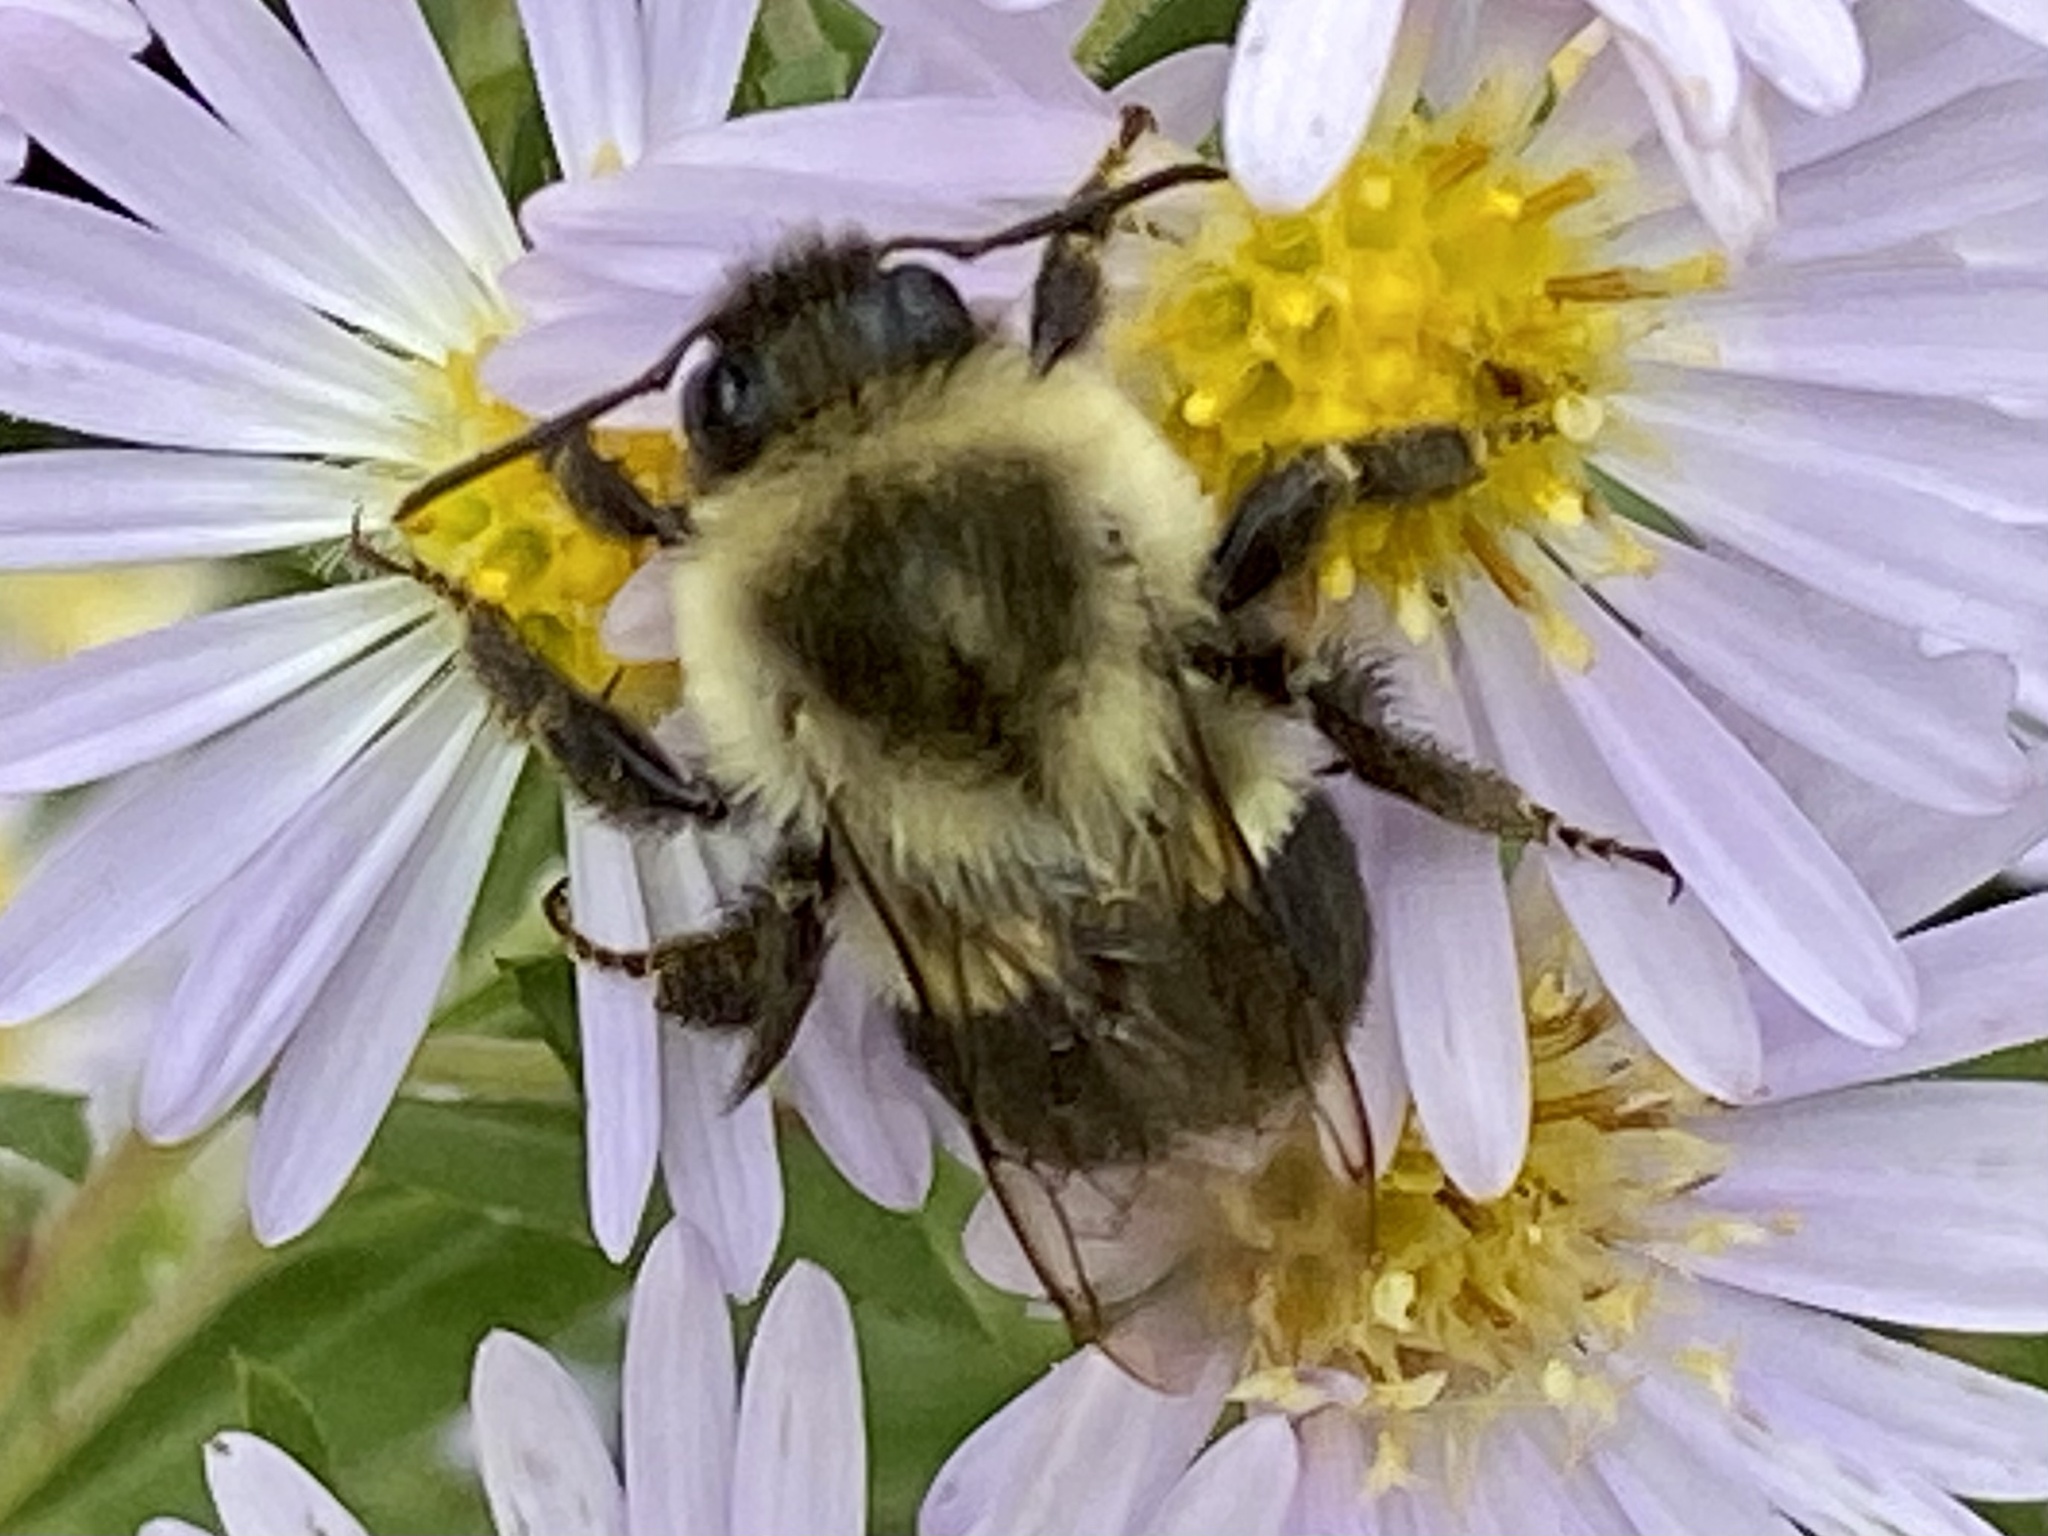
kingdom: Animalia
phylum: Arthropoda
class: Insecta
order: Hymenoptera
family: Apidae
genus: Bombus
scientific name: Bombus impatiens
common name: Common eastern bumble bee
